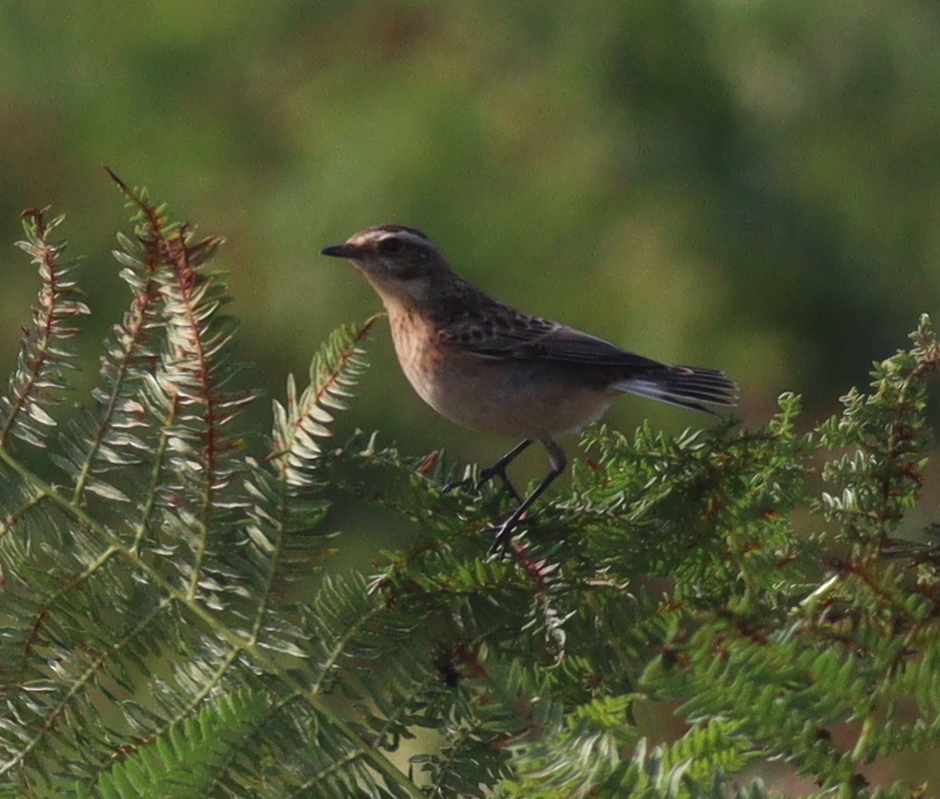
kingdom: Animalia
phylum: Chordata
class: Aves
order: Passeriformes
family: Muscicapidae
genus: Saxicola
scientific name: Saxicola rubetra
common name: Whinchat
